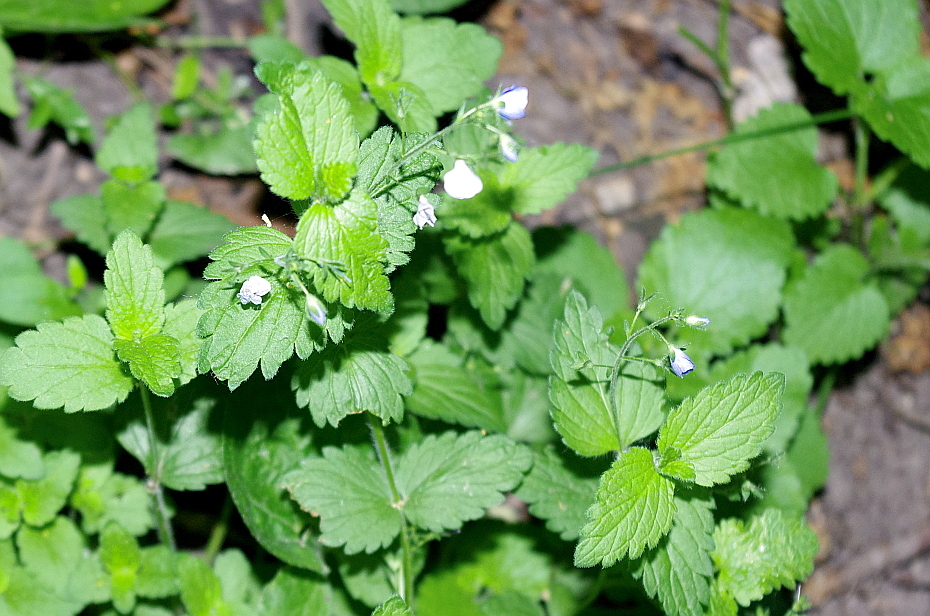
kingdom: Plantae
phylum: Tracheophyta
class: Magnoliopsida
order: Lamiales
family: Plantaginaceae
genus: Veronica
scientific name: Veronica chamaedrys
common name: Germander speedwell
